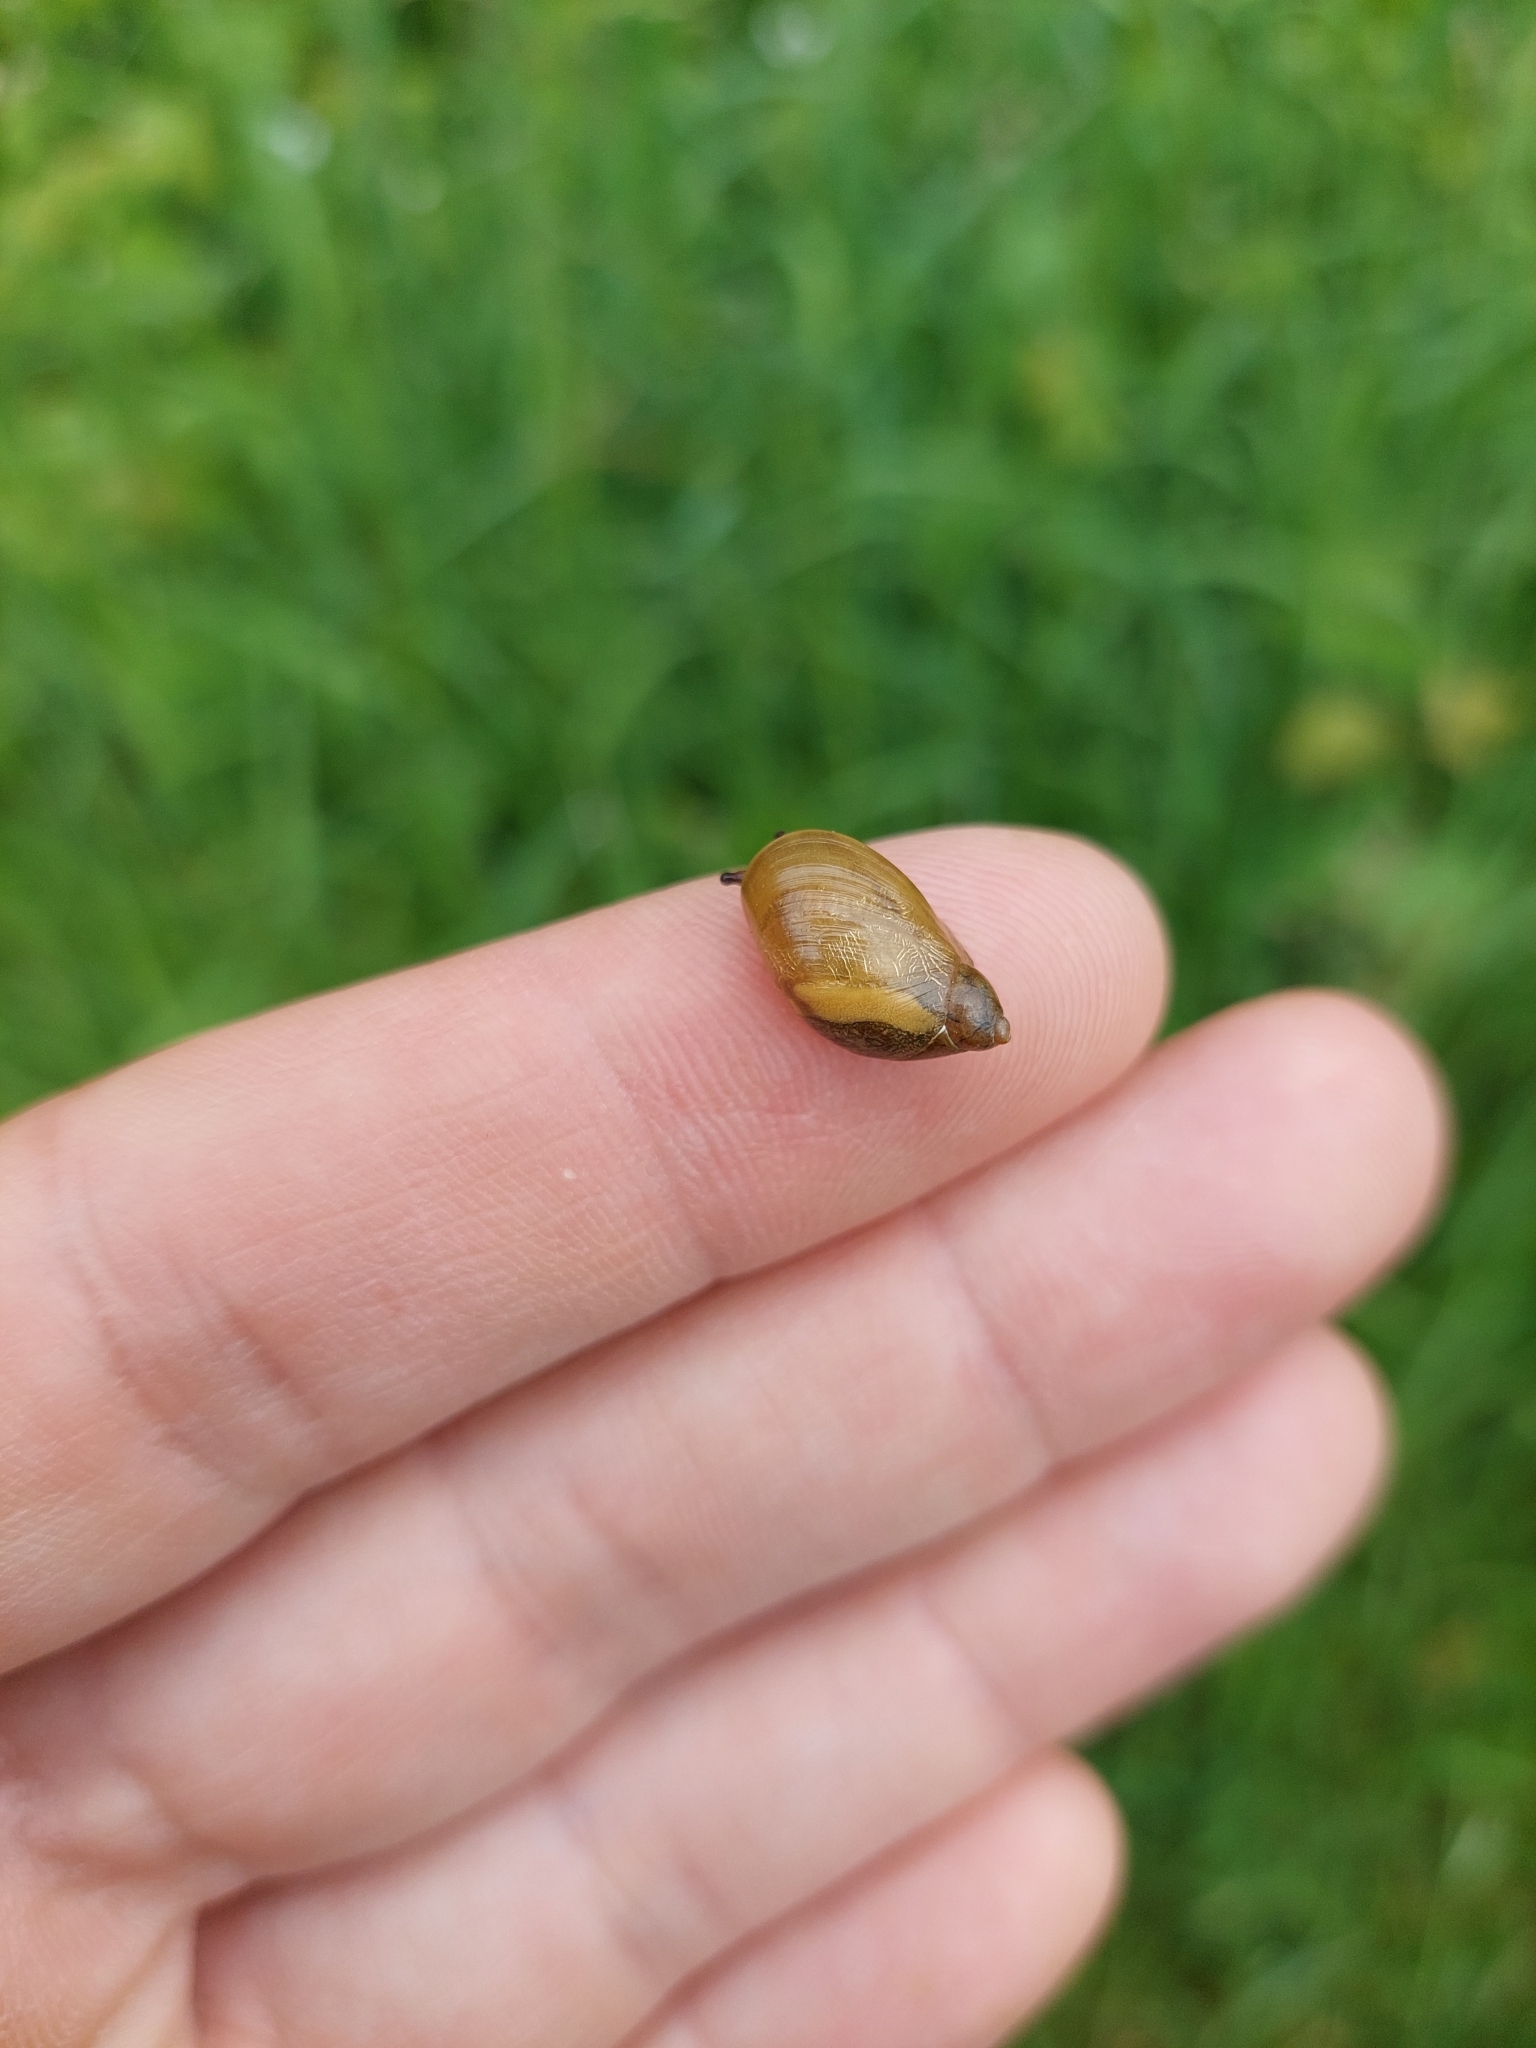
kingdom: Animalia
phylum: Mollusca
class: Gastropoda
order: Stylommatophora
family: Succineidae
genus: Succinea
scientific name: Succinea putris
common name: European ambersnail
